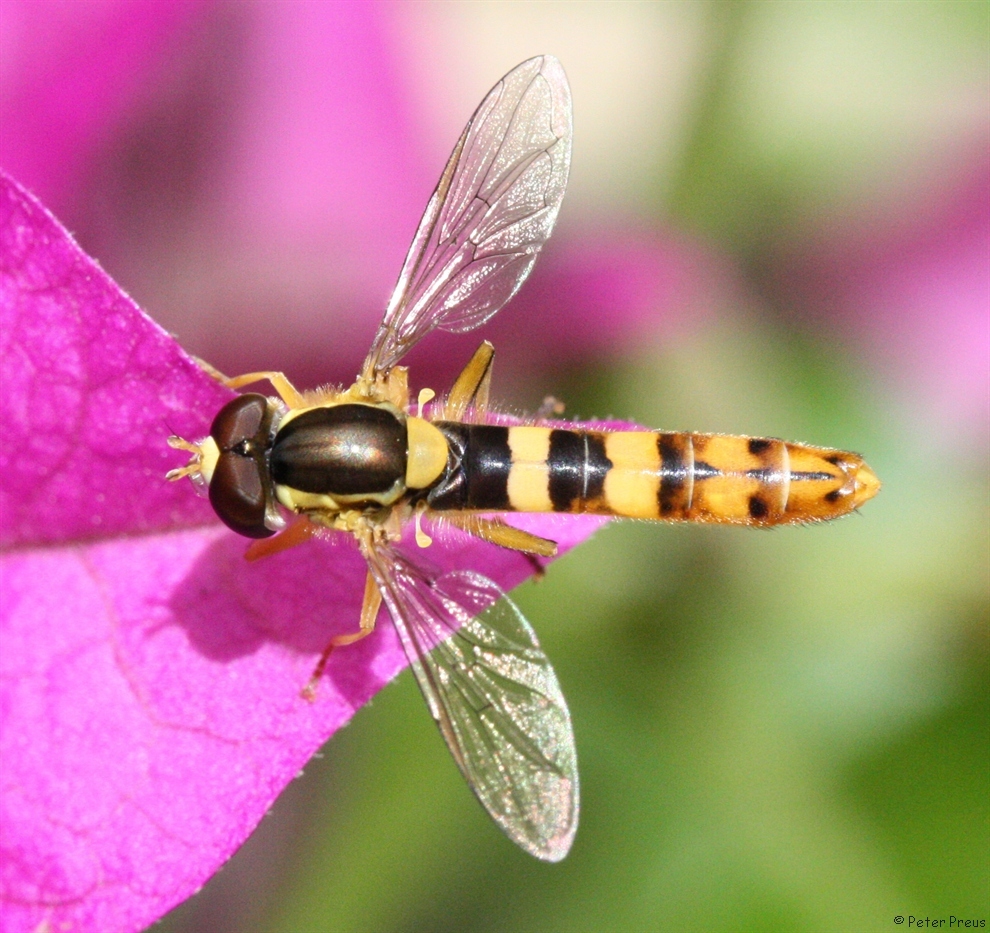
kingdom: Animalia
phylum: Arthropoda
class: Insecta
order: Diptera
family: Syrphidae
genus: Sphaerophoria
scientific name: Sphaerophoria scripta
